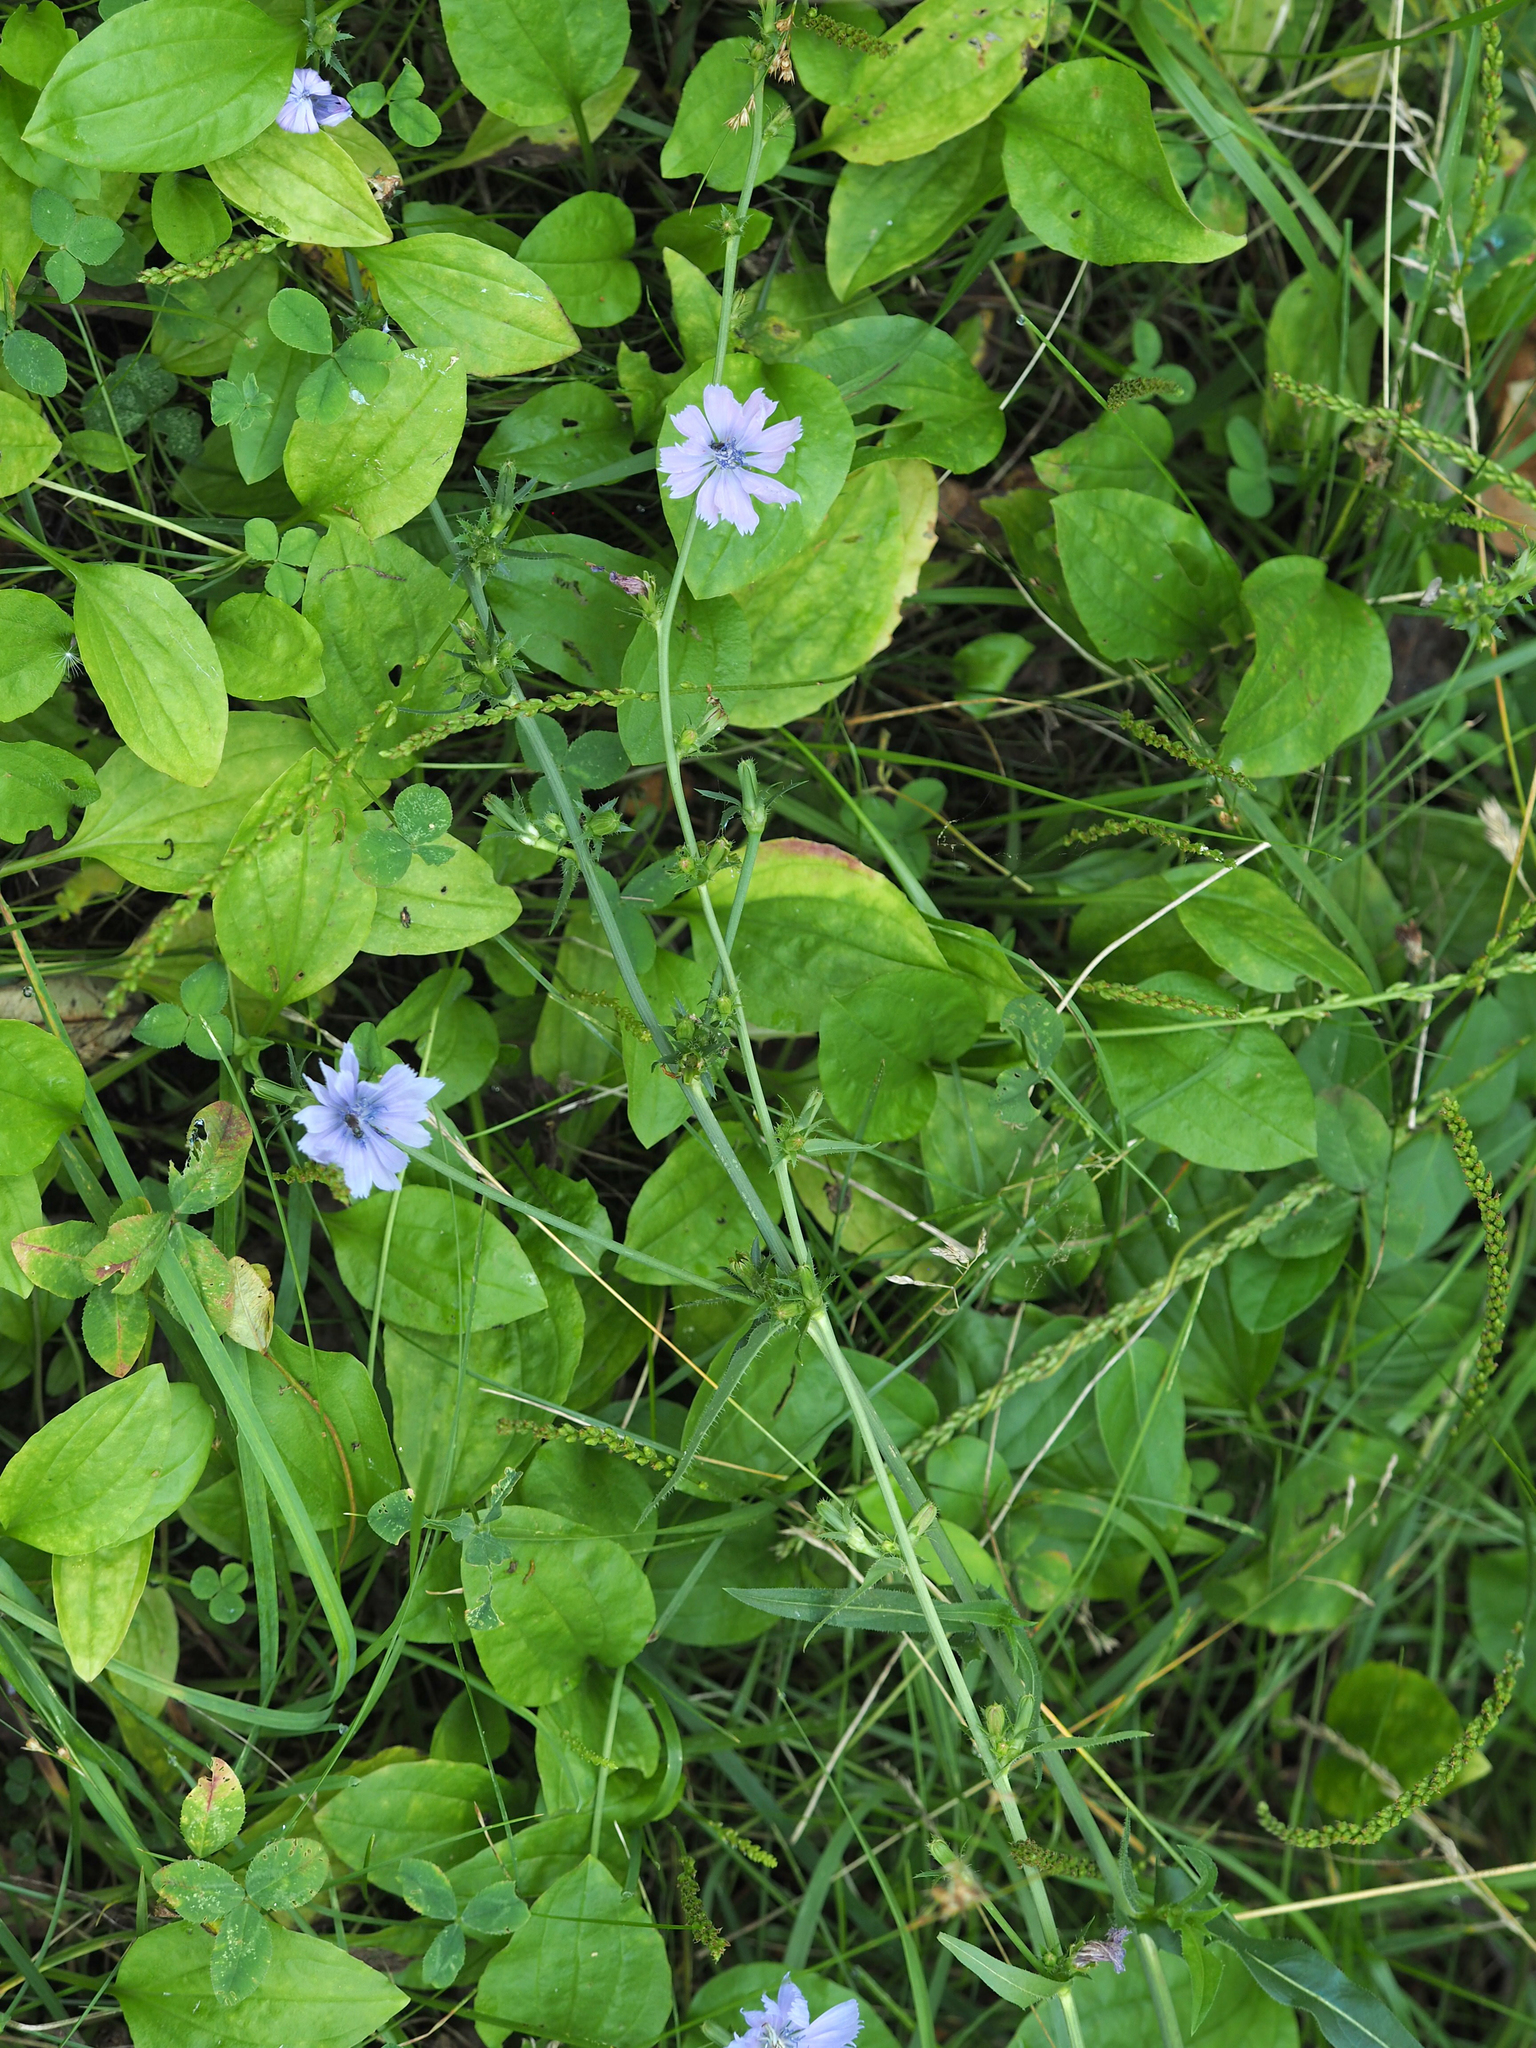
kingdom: Plantae
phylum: Tracheophyta
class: Magnoliopsida
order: Asterales
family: Asteraceae
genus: Cichorium
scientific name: Cichorium intybus
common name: Chicory
